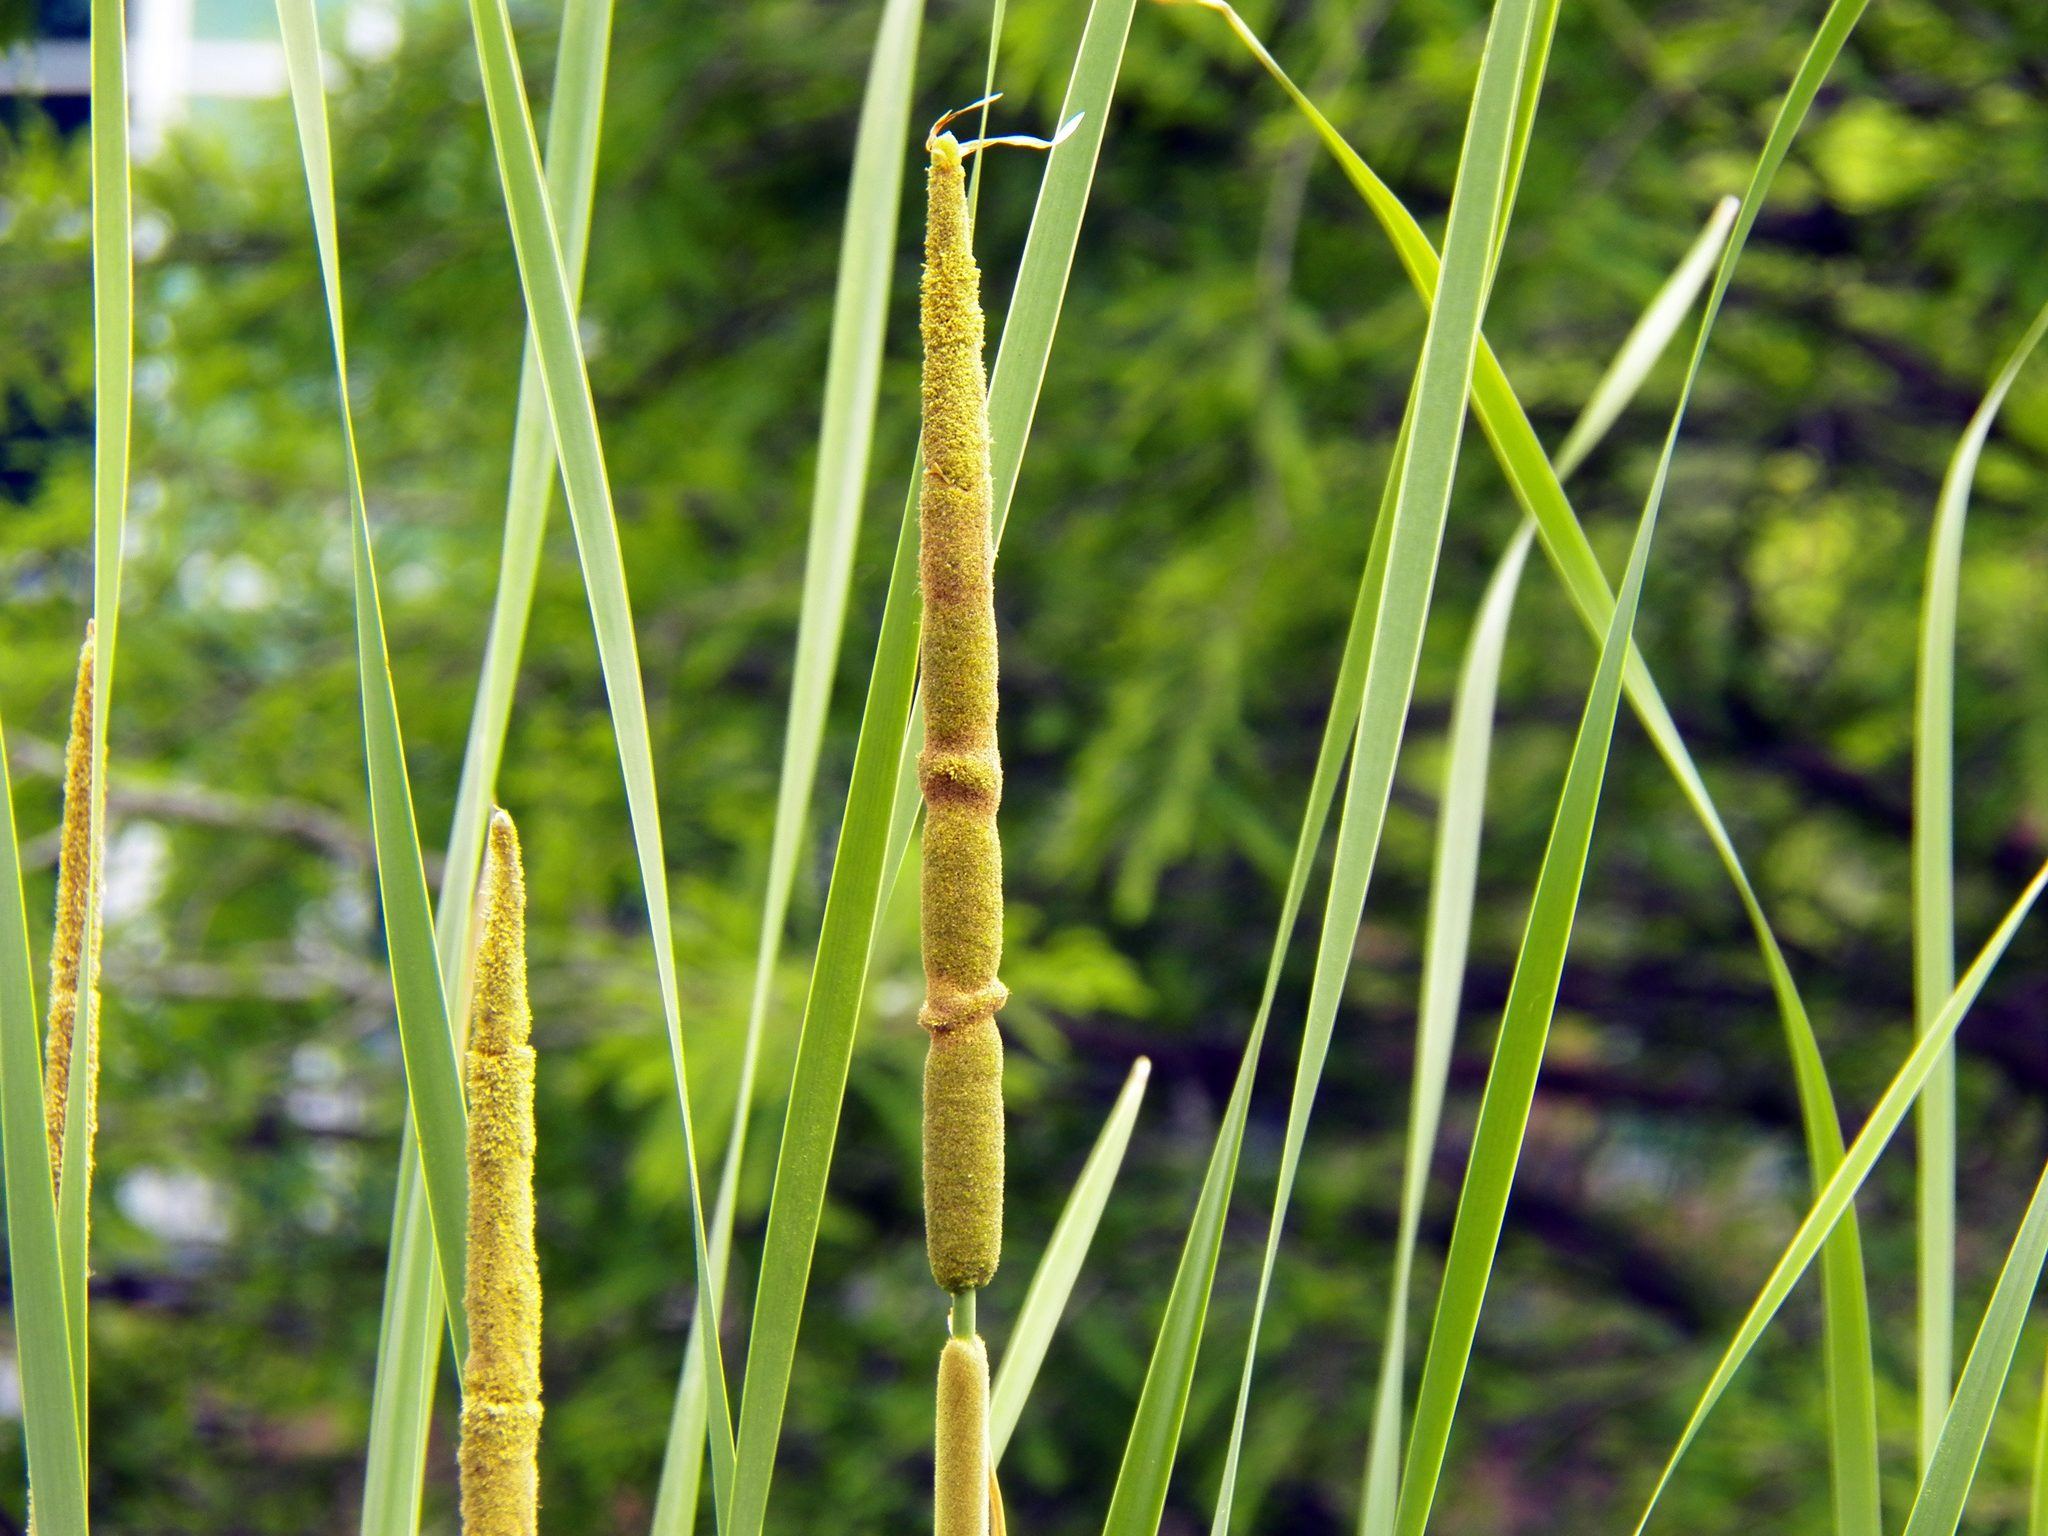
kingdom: Plantae
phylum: Tracheophyta
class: Liliopsida
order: Poales
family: Typhaceae
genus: Typha
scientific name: Typha latifolia
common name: Broadleaf cattail
